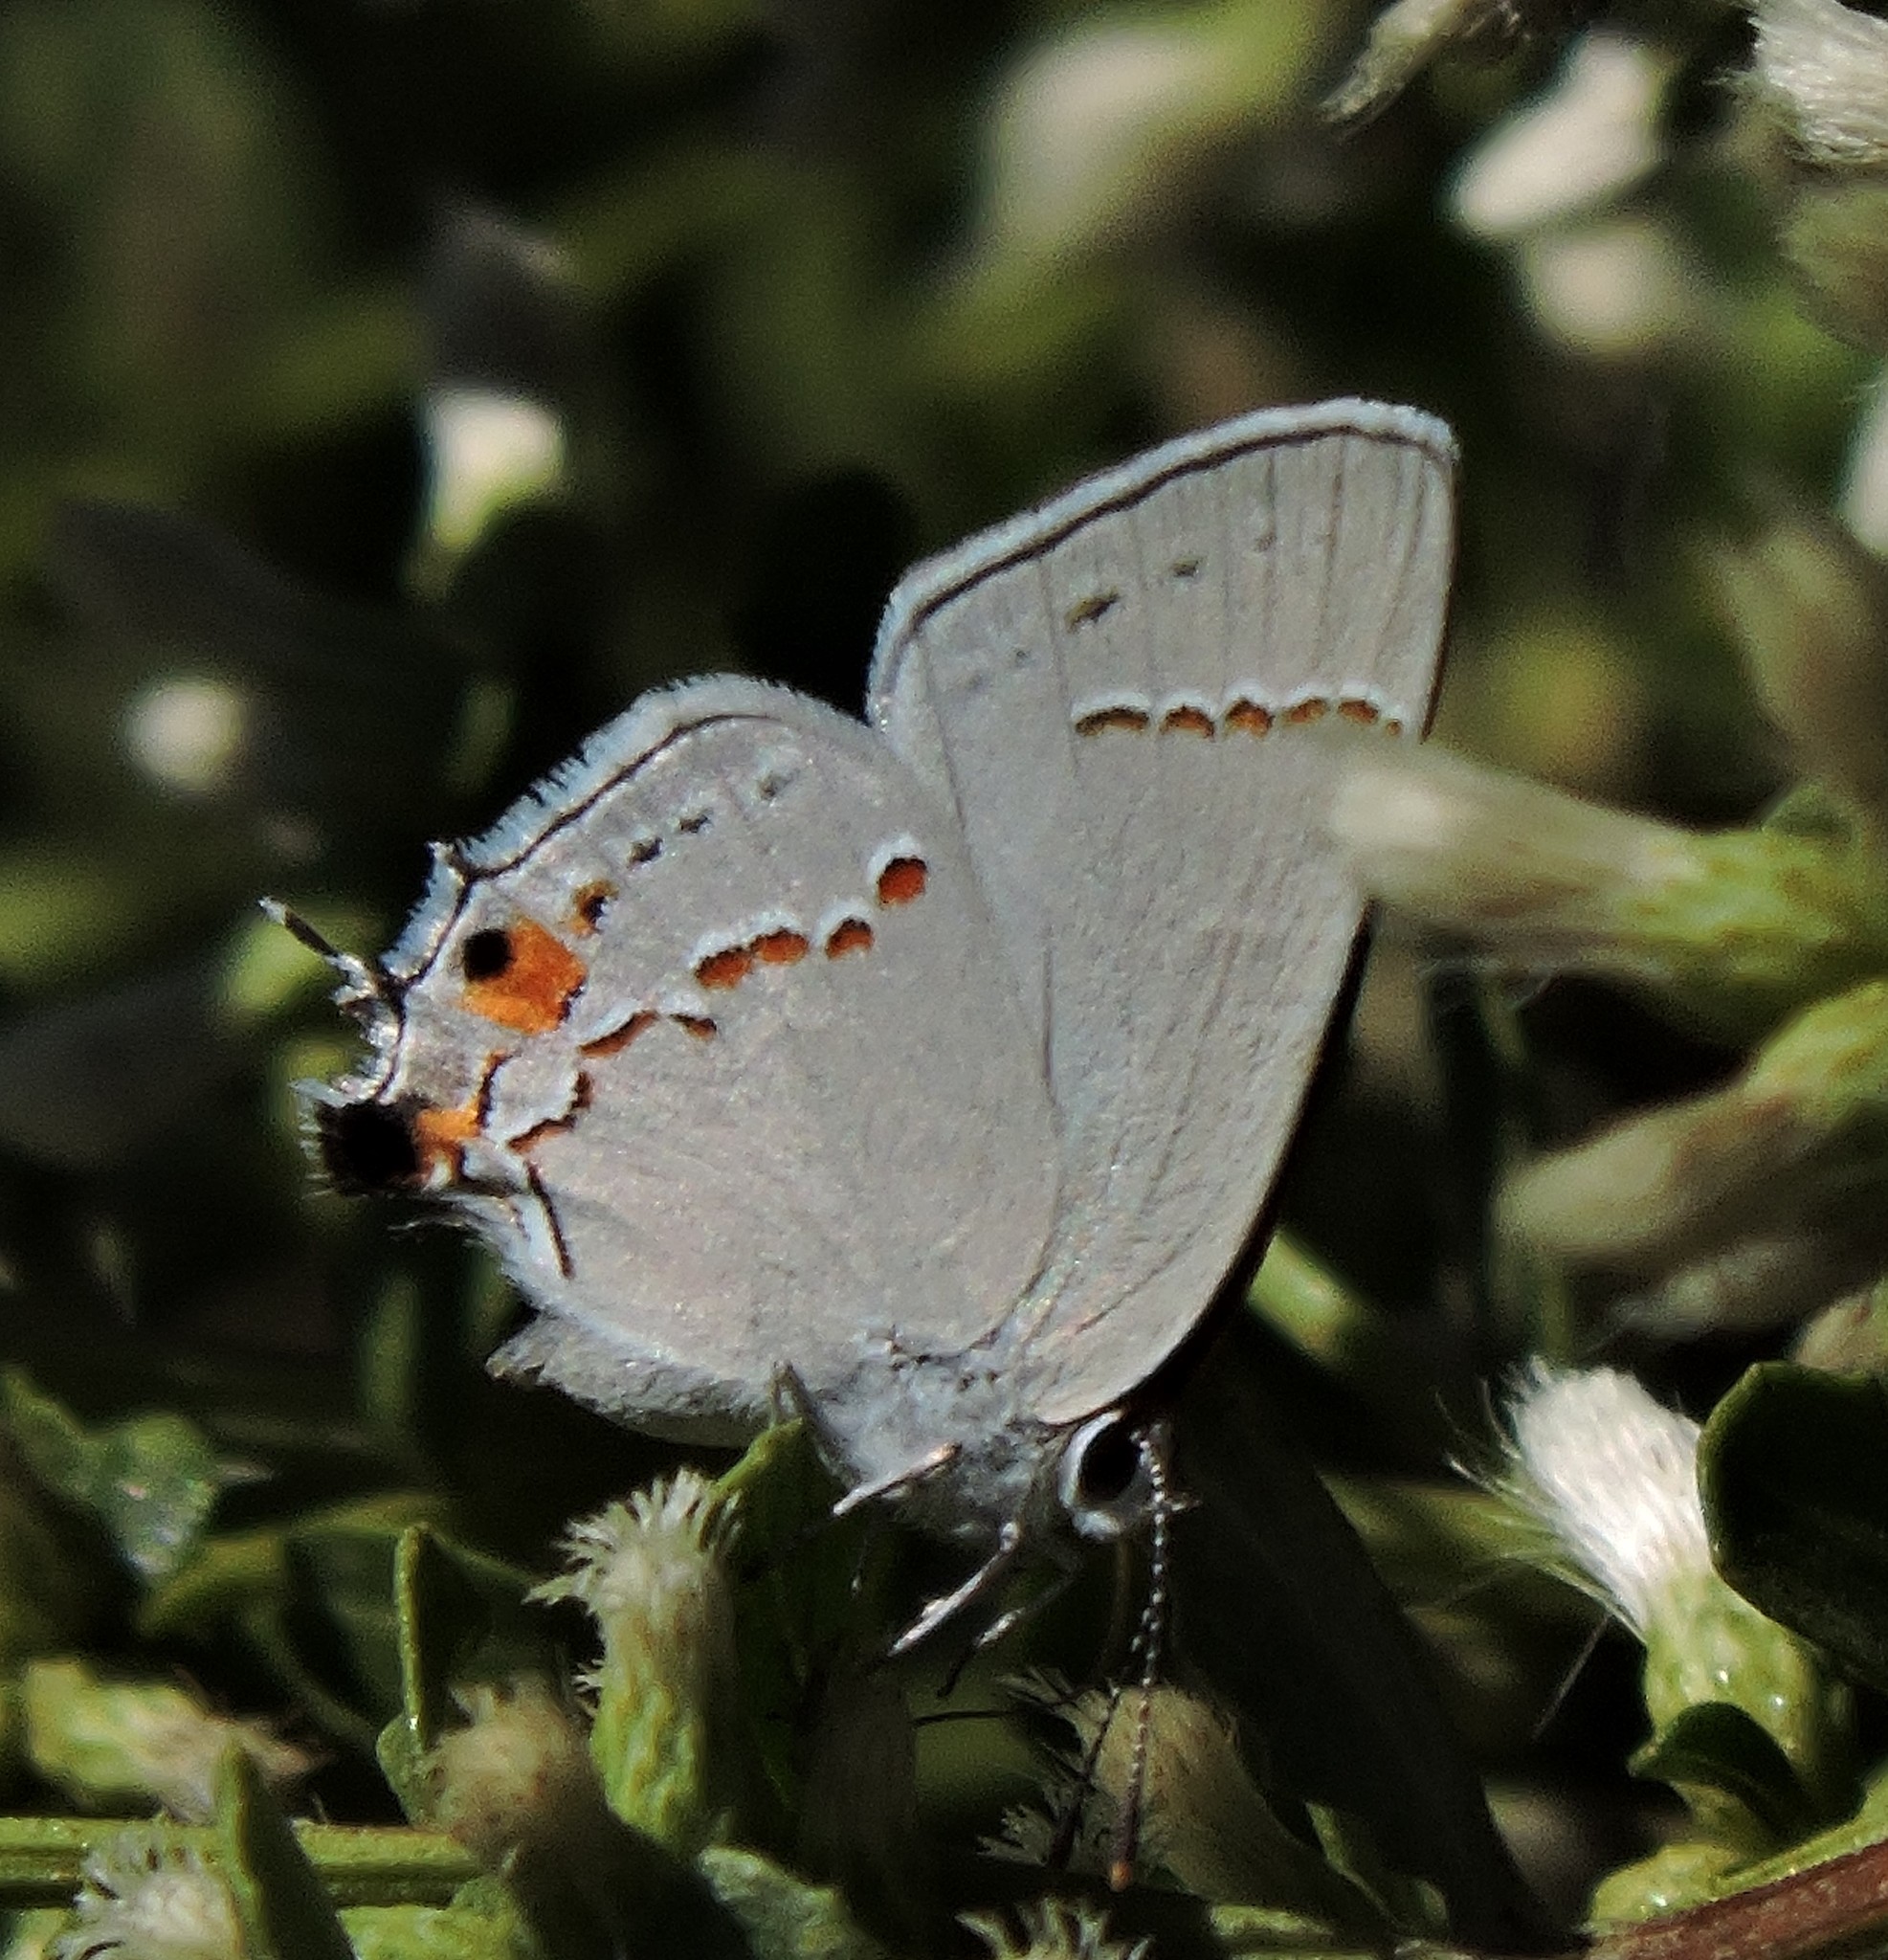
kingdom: Animalia
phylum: Arthropoda
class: Insecta
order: Lepidoptera
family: Lycaenidae
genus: Strymon
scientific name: Strymon melinus
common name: Gray hairstreak
